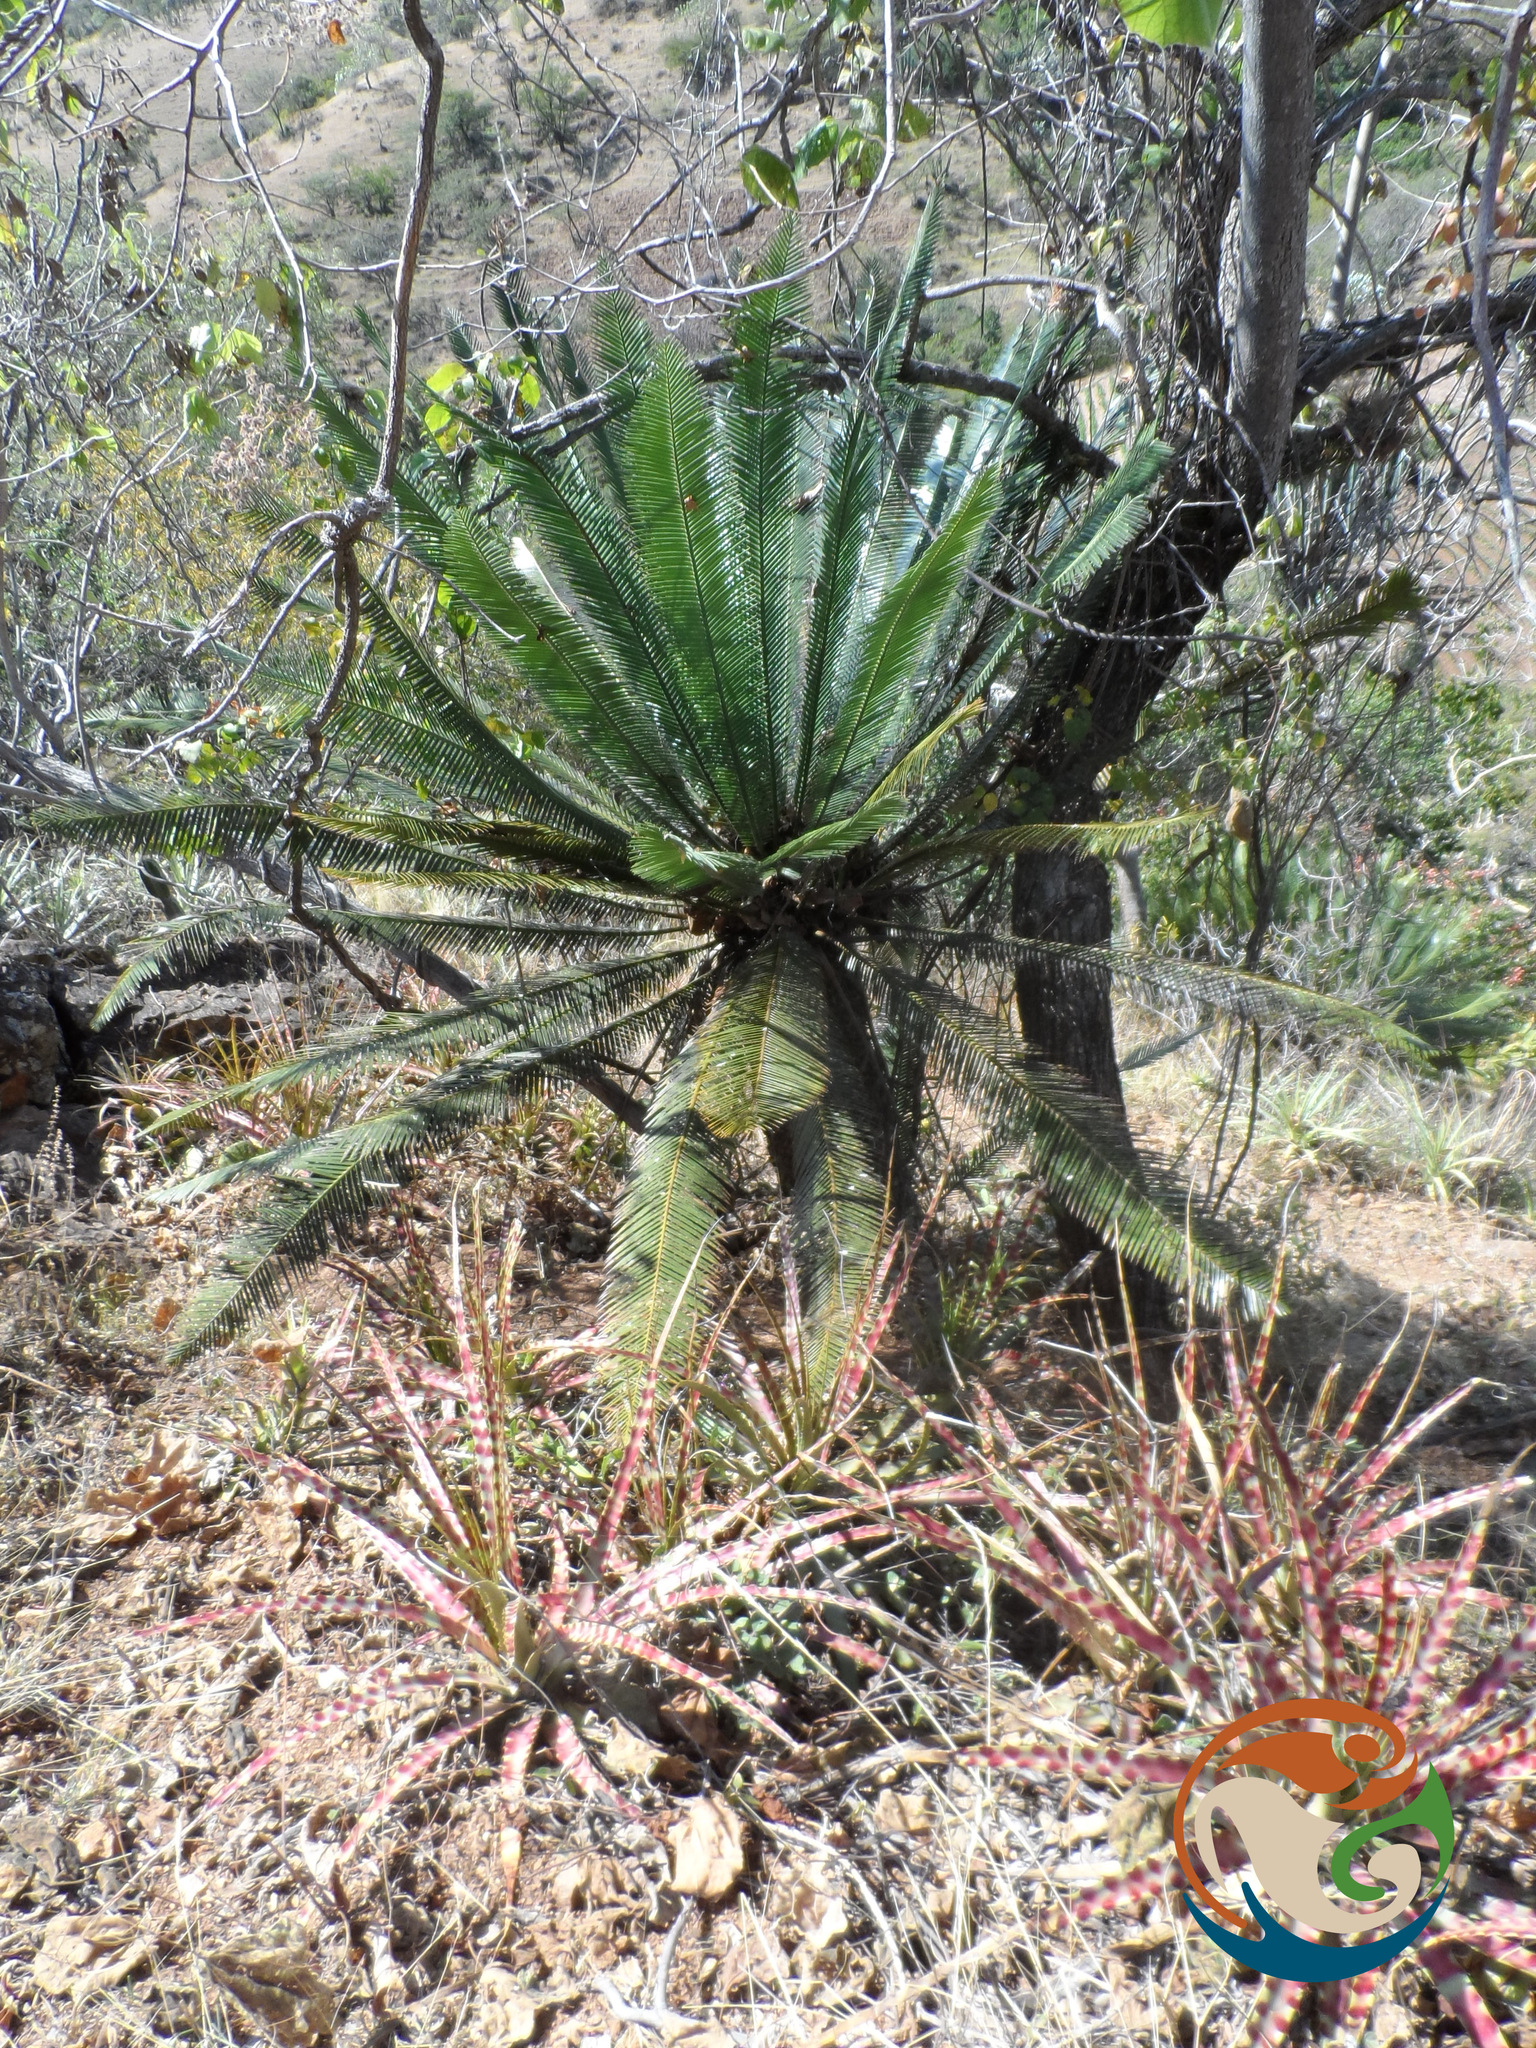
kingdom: Plantae
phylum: Tracheophyta
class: Cycadopsida
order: Cycadales
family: Zamiaceae
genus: Dioon
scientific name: Dioon planifolium
